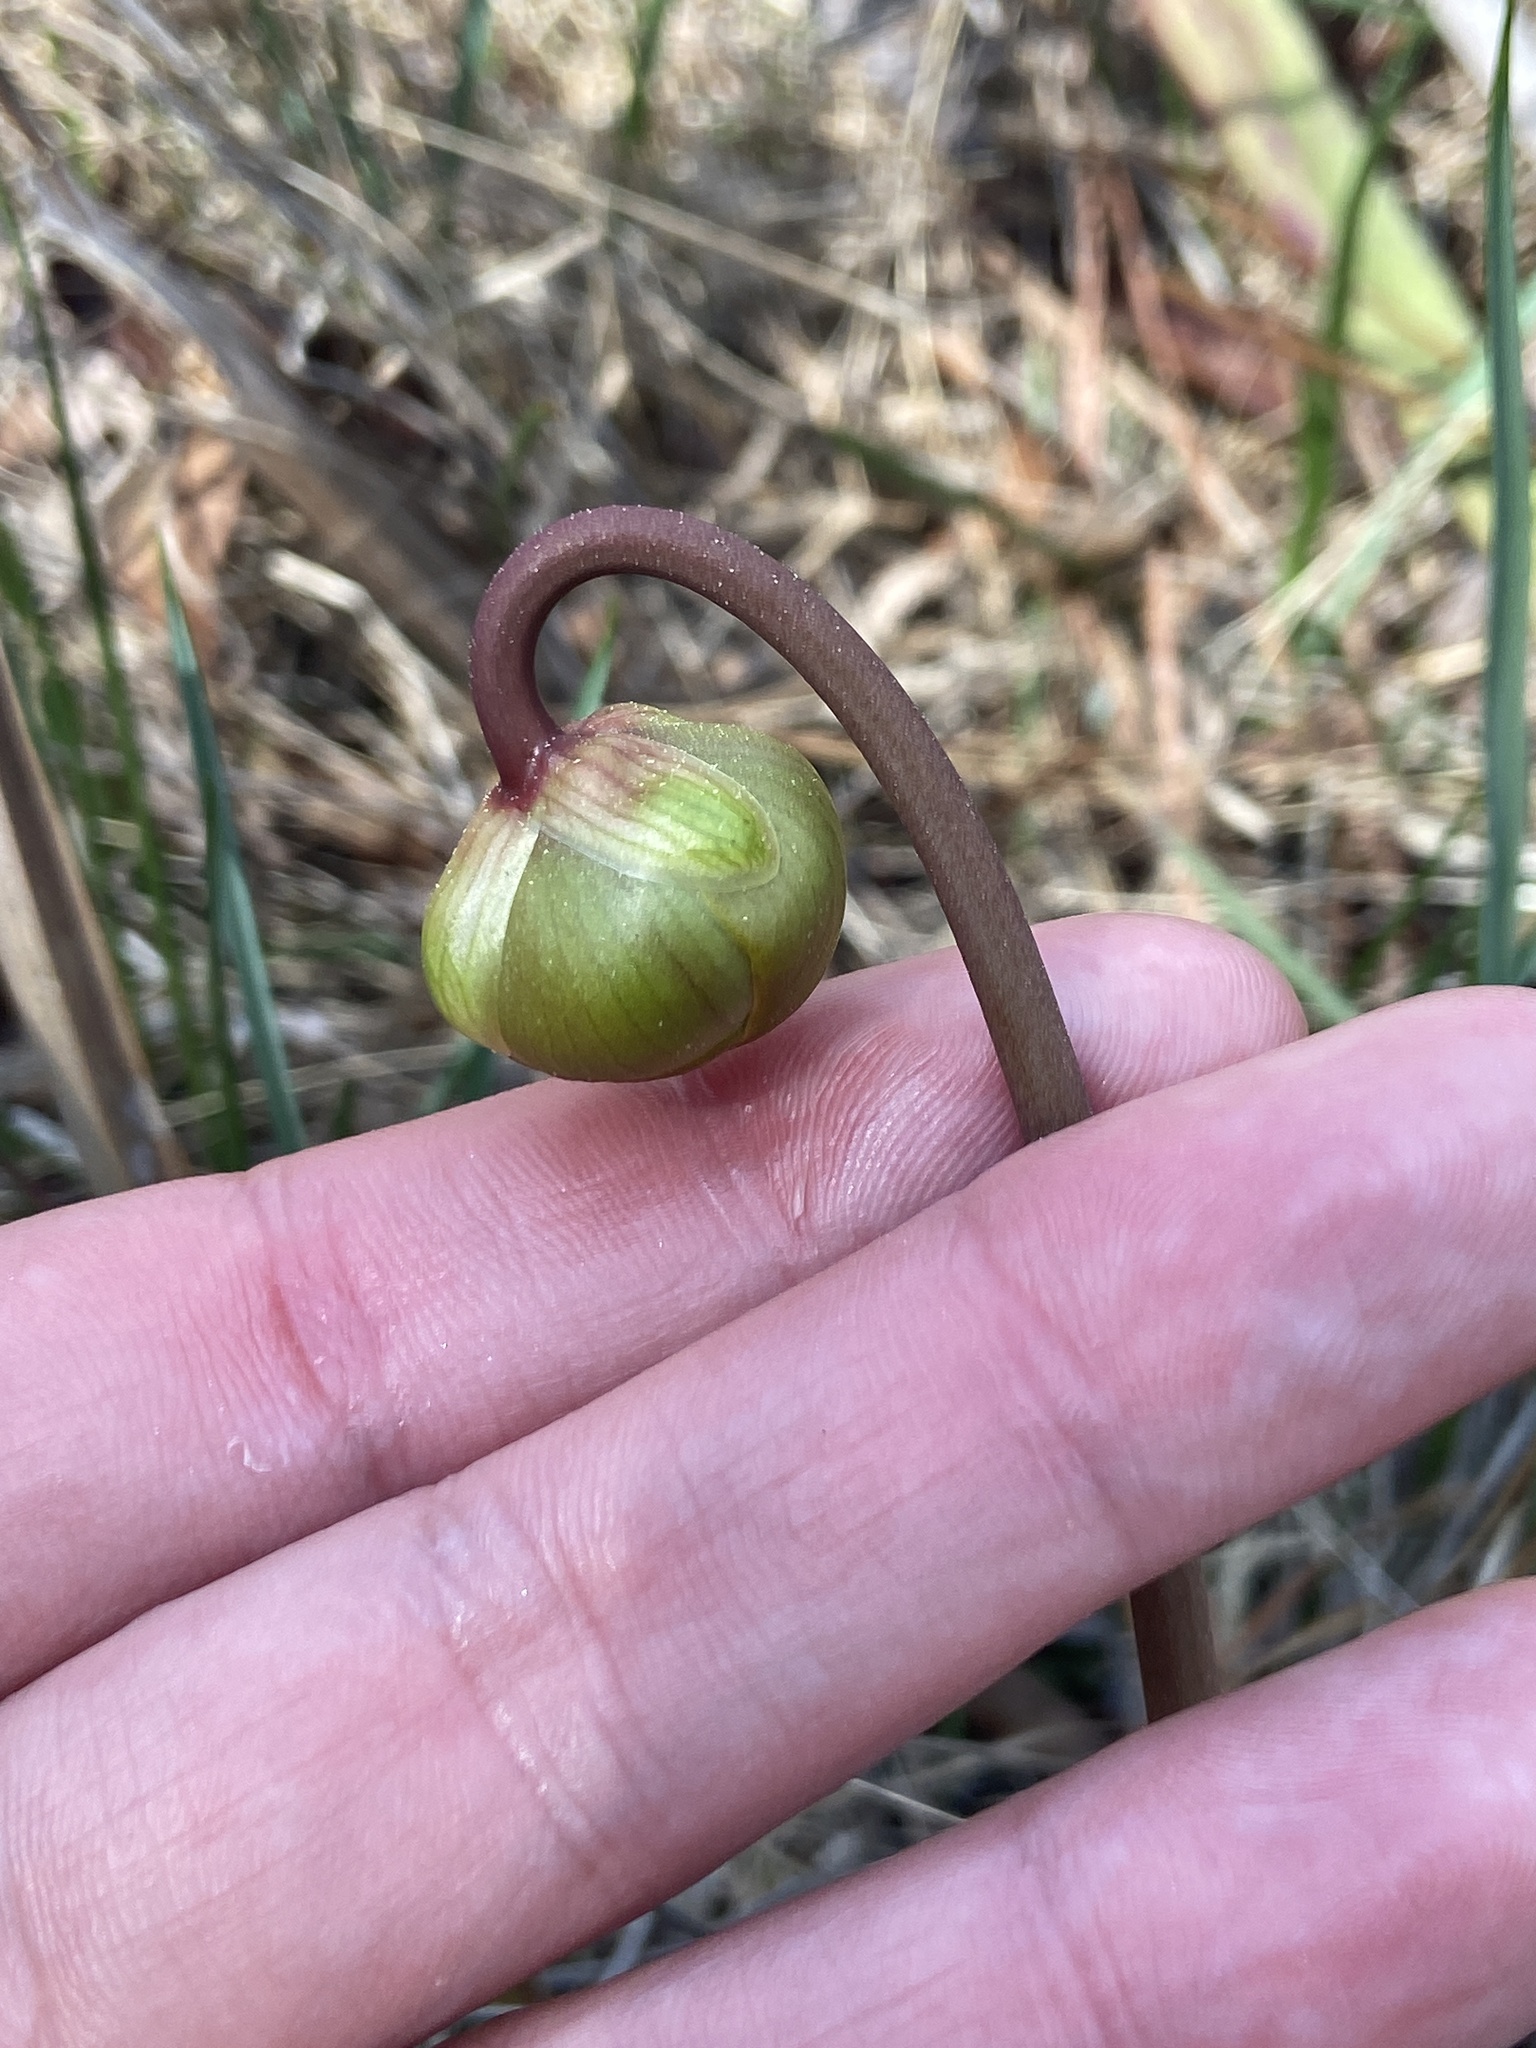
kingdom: Plantae
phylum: Tracheophyta
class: Magnoliopsida
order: Ericales
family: Sarraceniaceae
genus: Sarracenia
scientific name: Sarracenia alata
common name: Yellow trumpets
